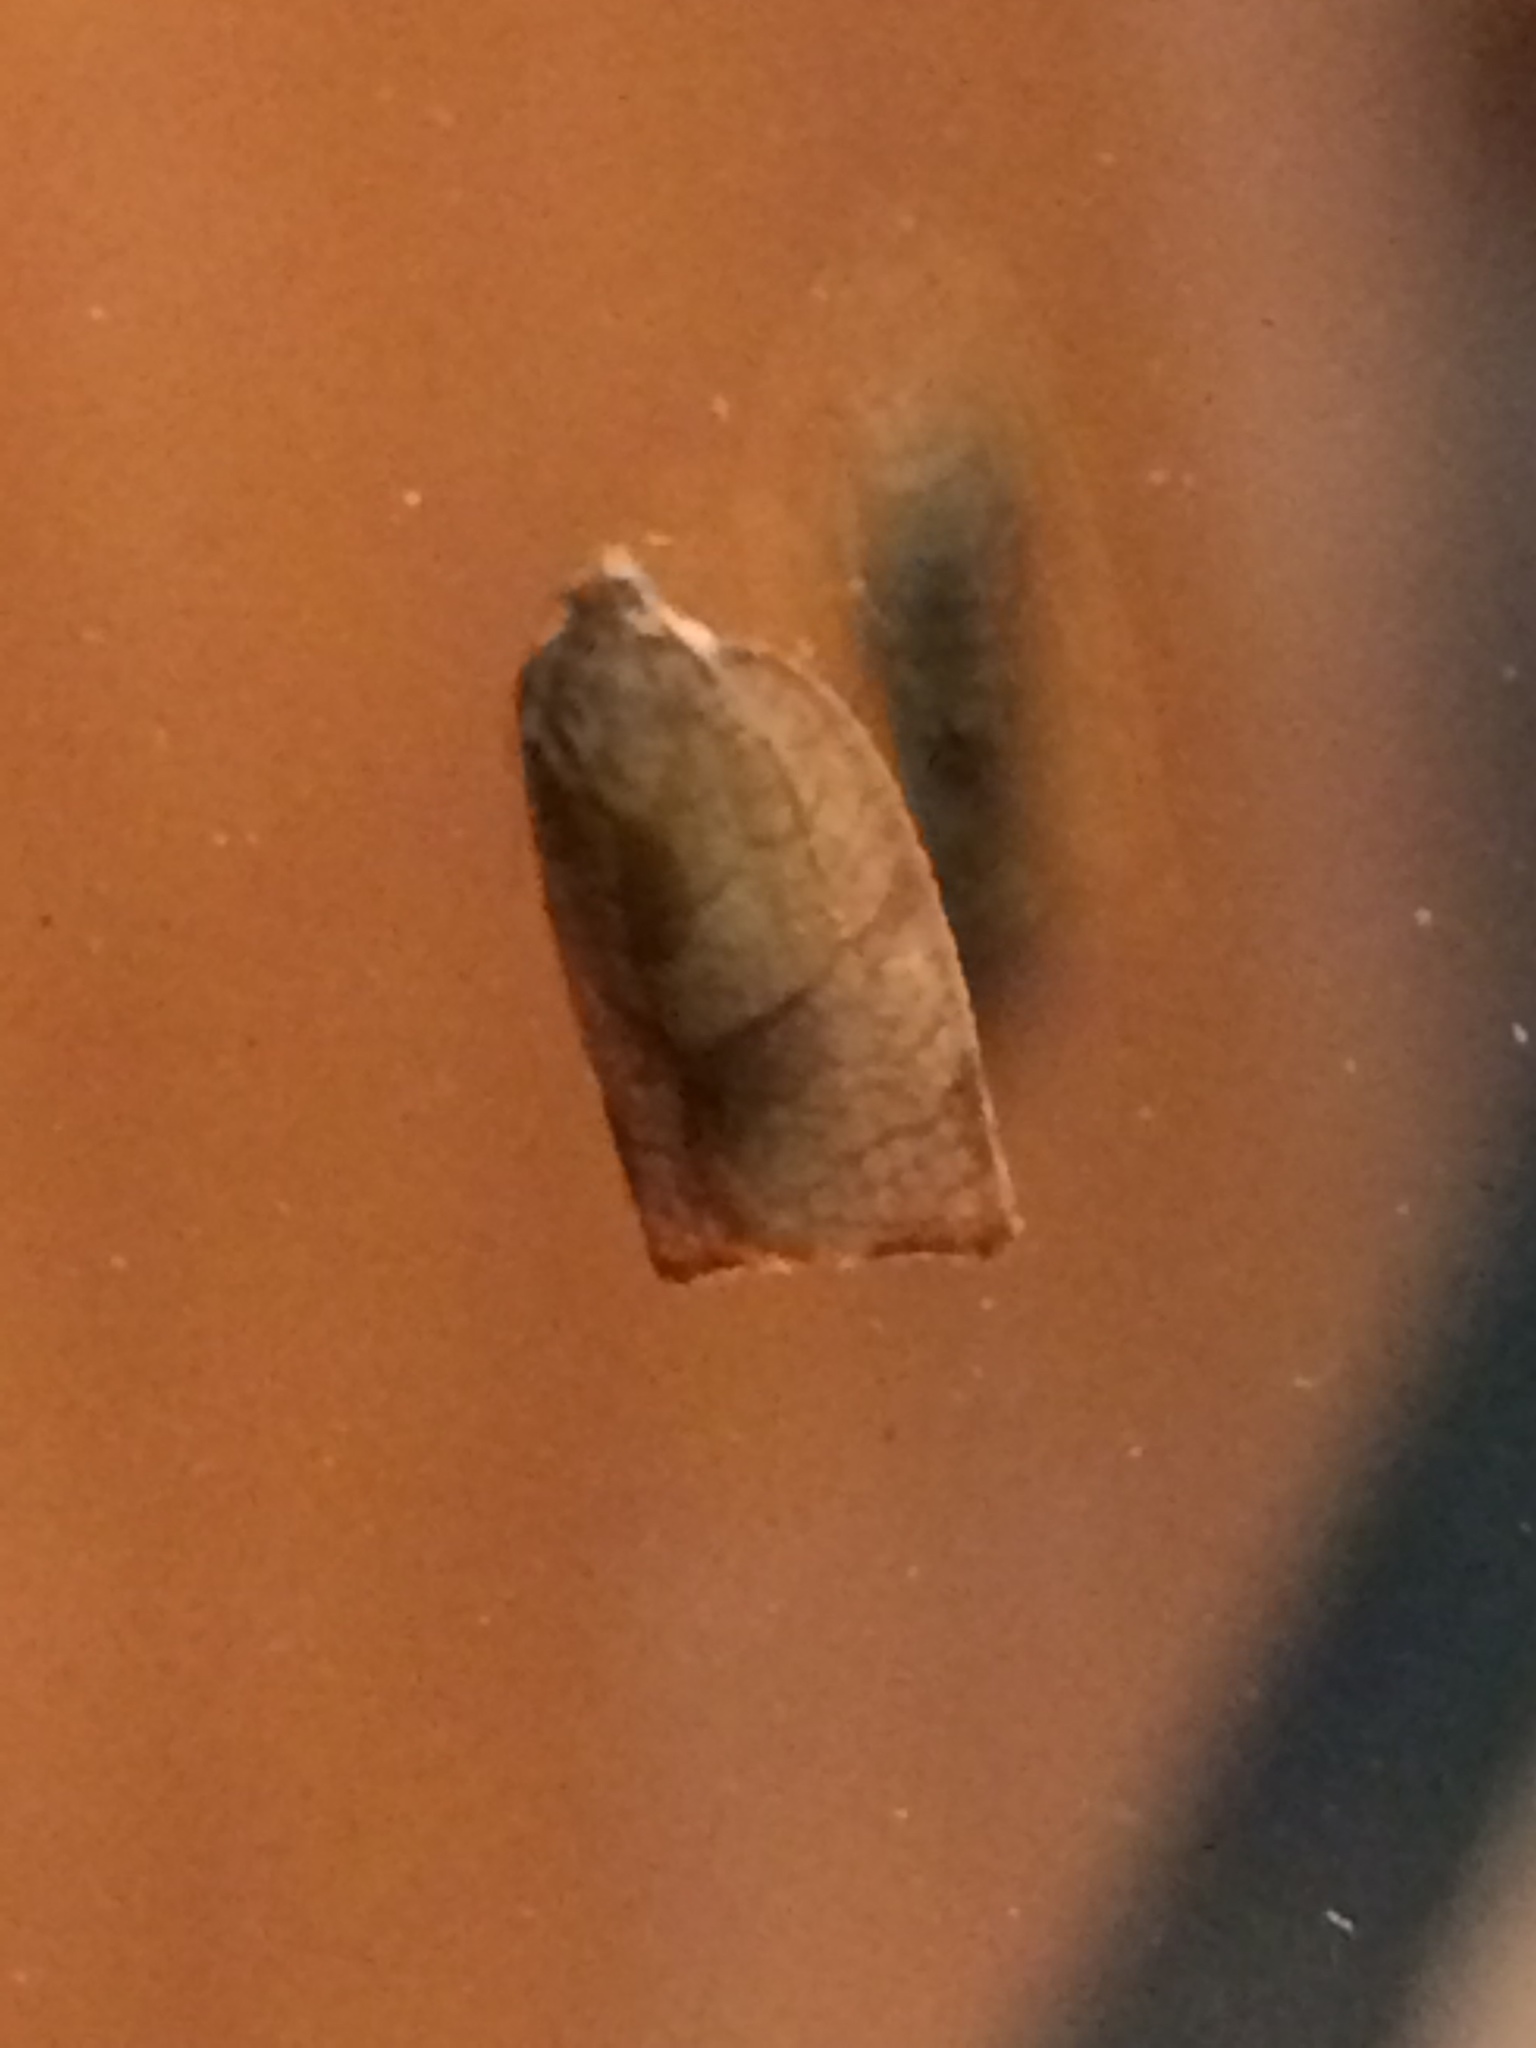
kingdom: Animalia
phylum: Arthropoda
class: Insecta
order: Lepidoptera
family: Tortricidae
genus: Choristoneura
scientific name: Choristoneura rosaceana
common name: Oblique-banded leafroller moth
